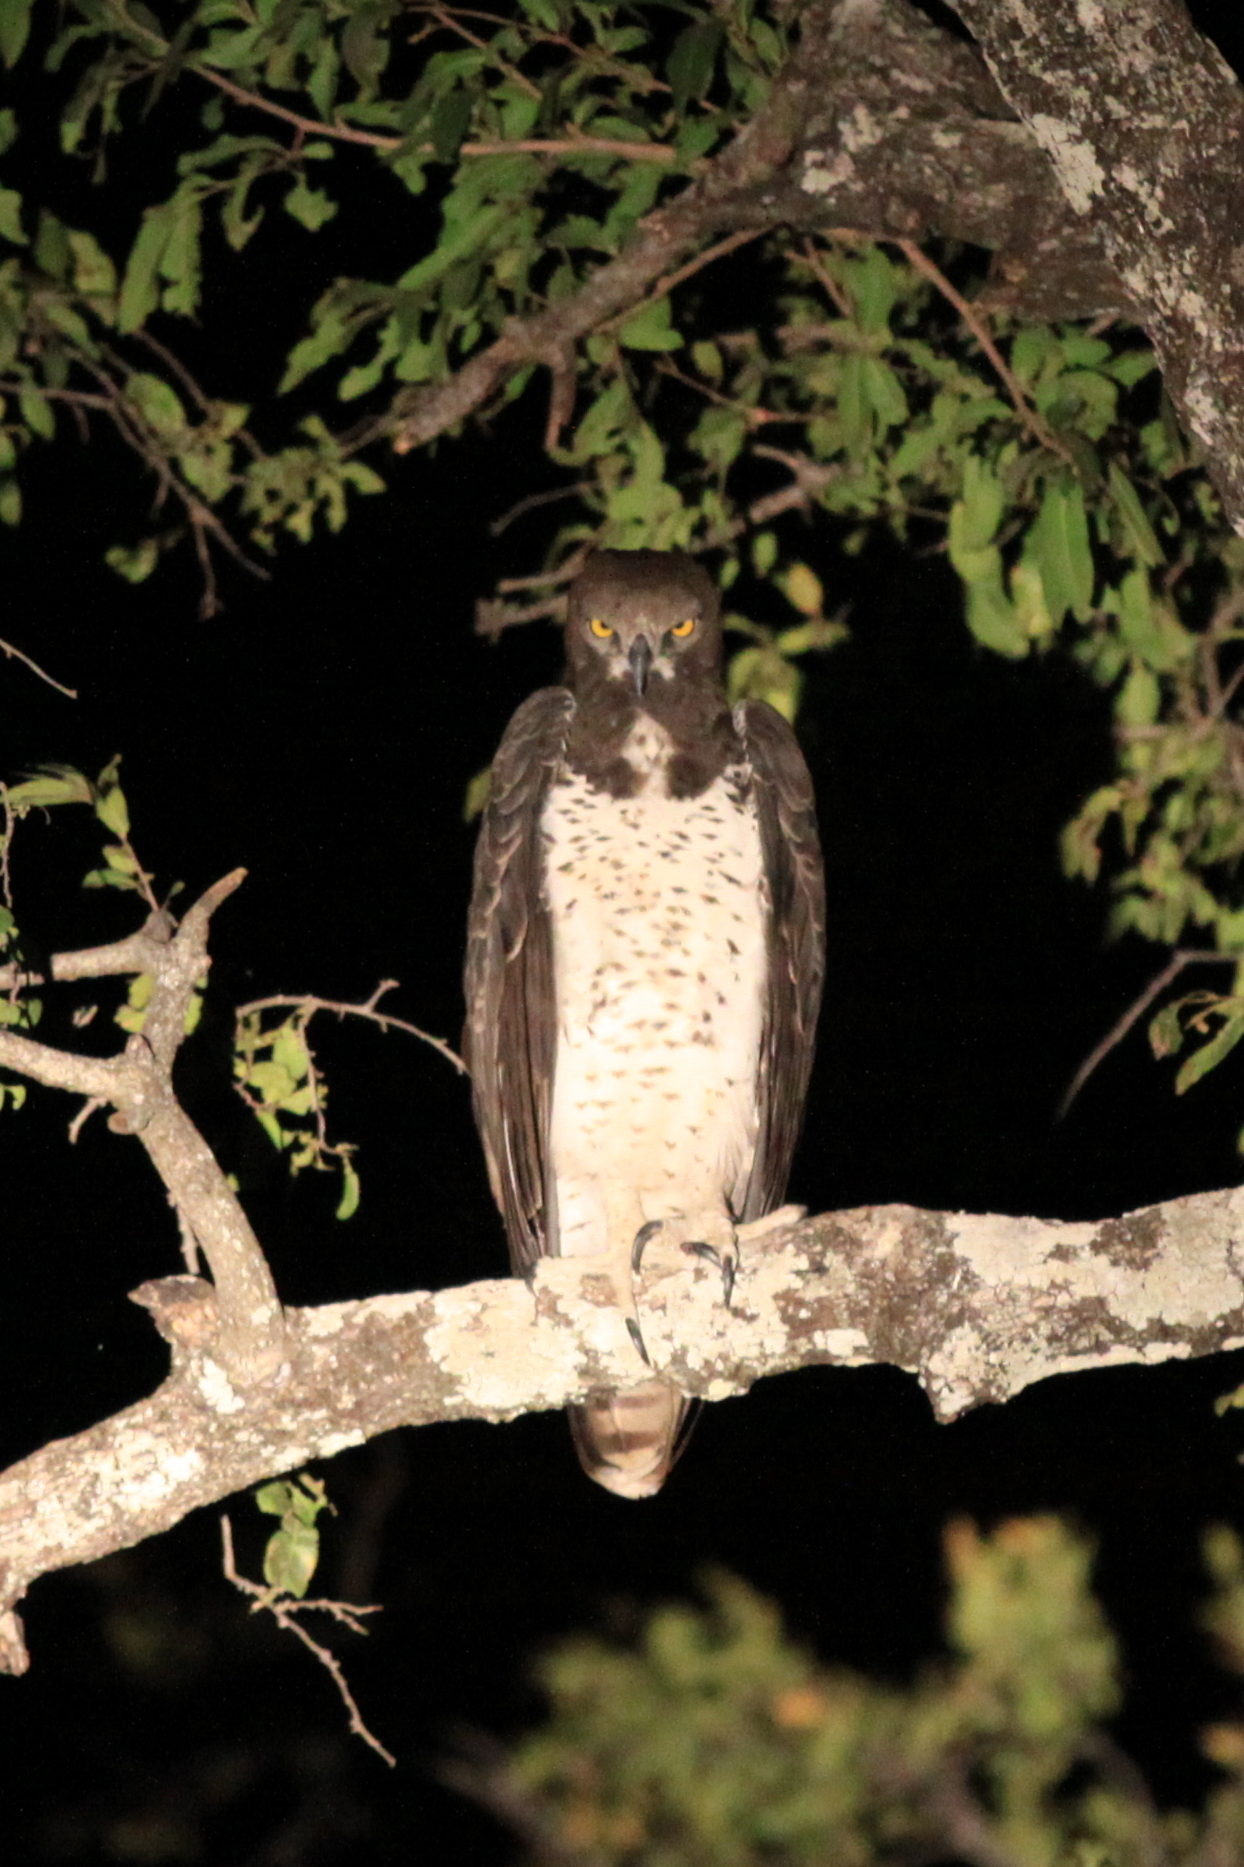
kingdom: Animalia
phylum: Chordata
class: Aves
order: Accipitriformes
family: Accipitridae
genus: Polemaetus
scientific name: Polemaetus bellicosus
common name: Martial eagle
